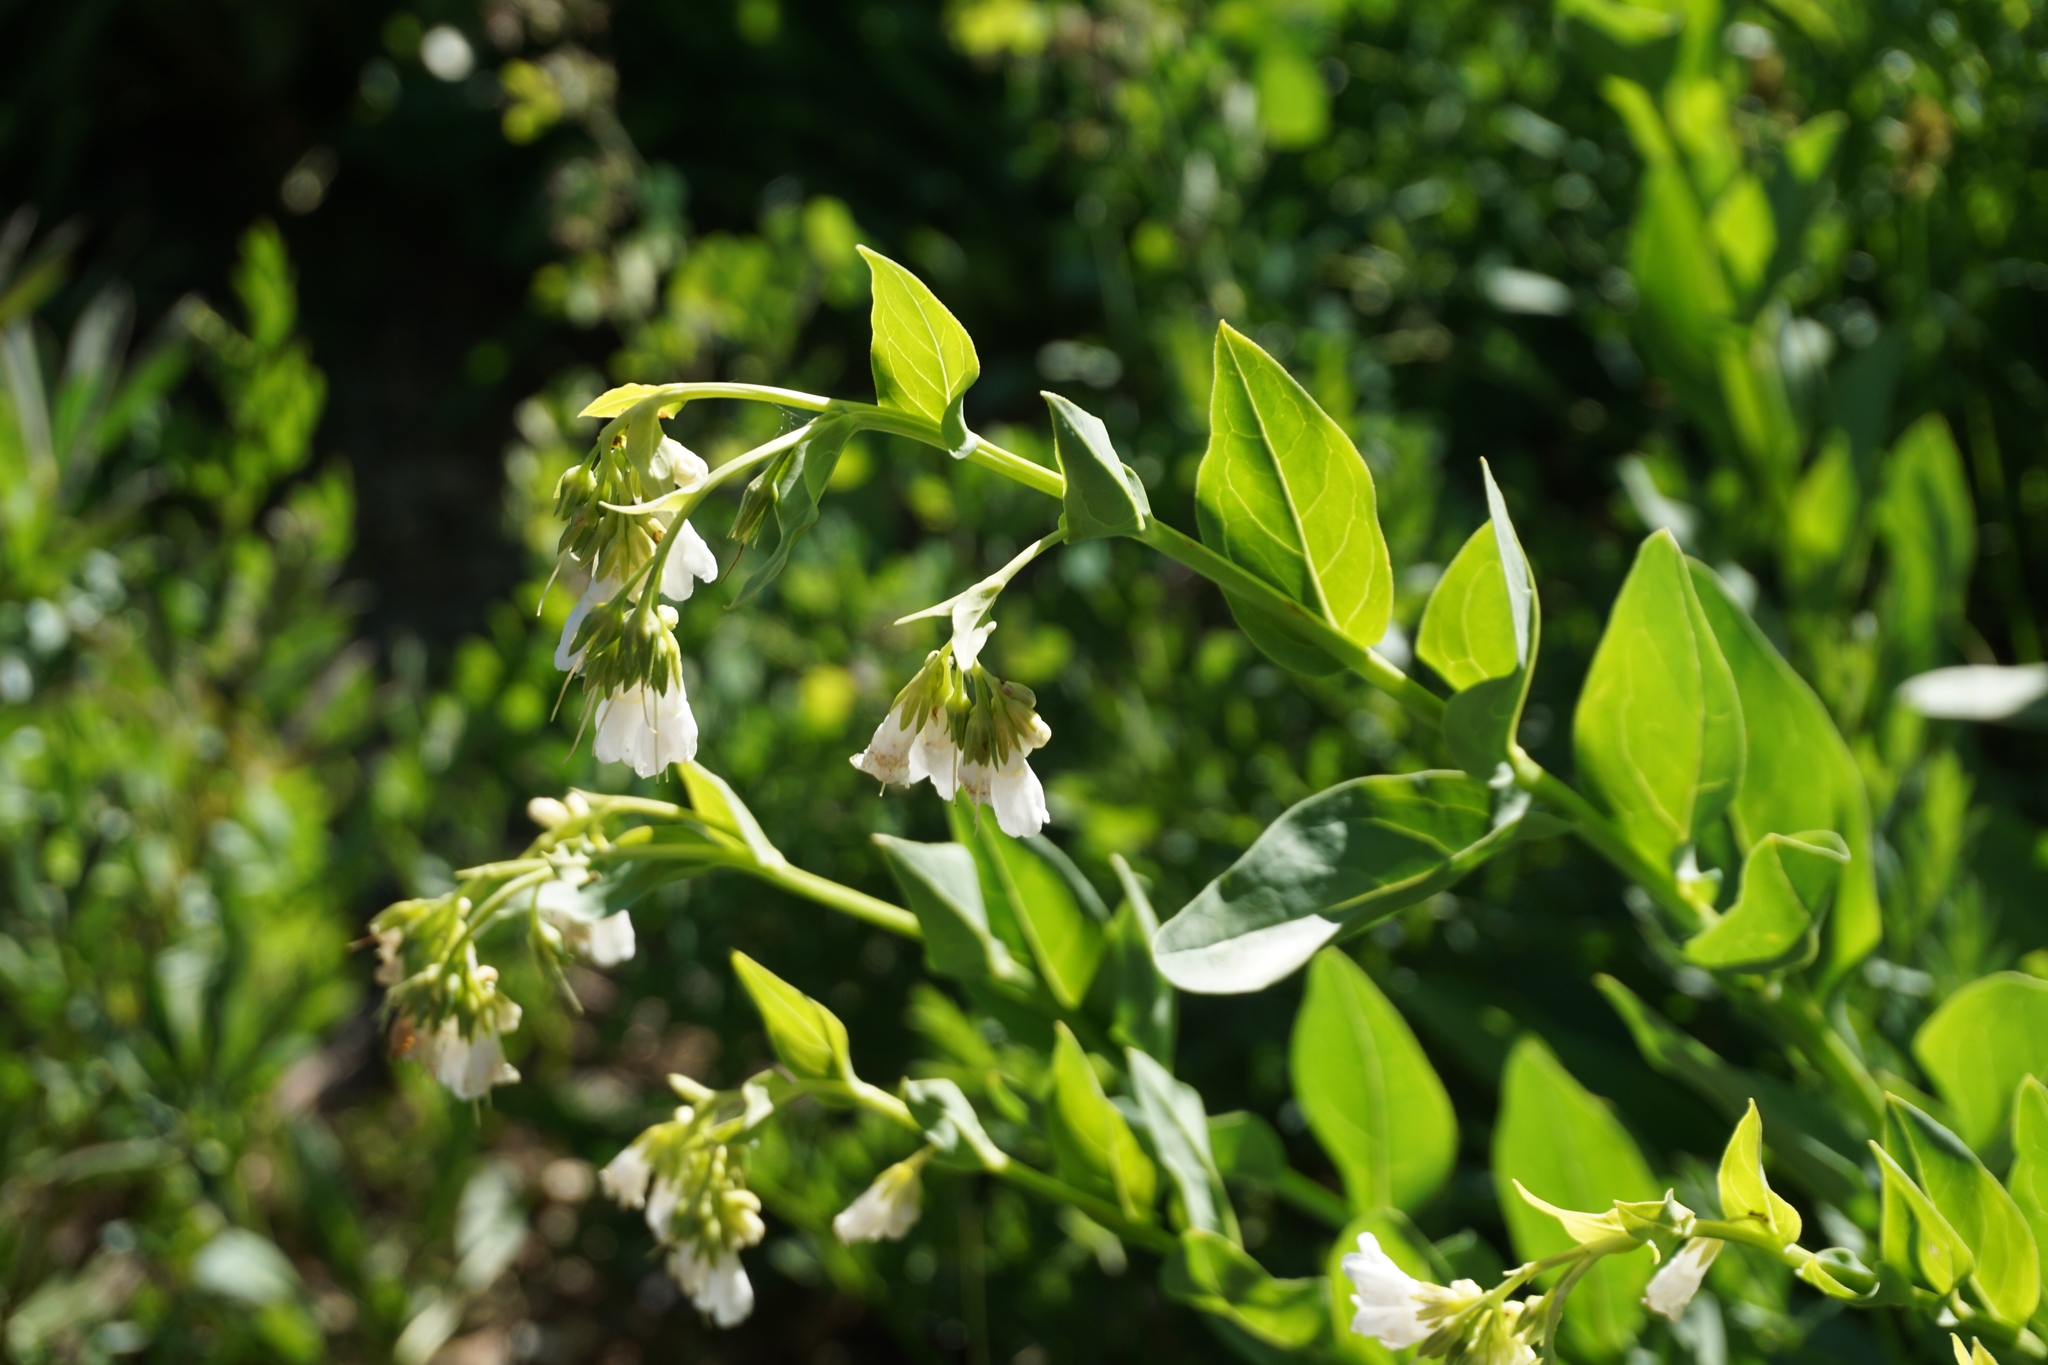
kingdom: Plantae
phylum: Tracheophyta
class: Magnoliopsida
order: Boraginales
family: Boraginaceae
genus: Mertensia
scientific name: Mertensia ciliata
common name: Tall chiming-bells
